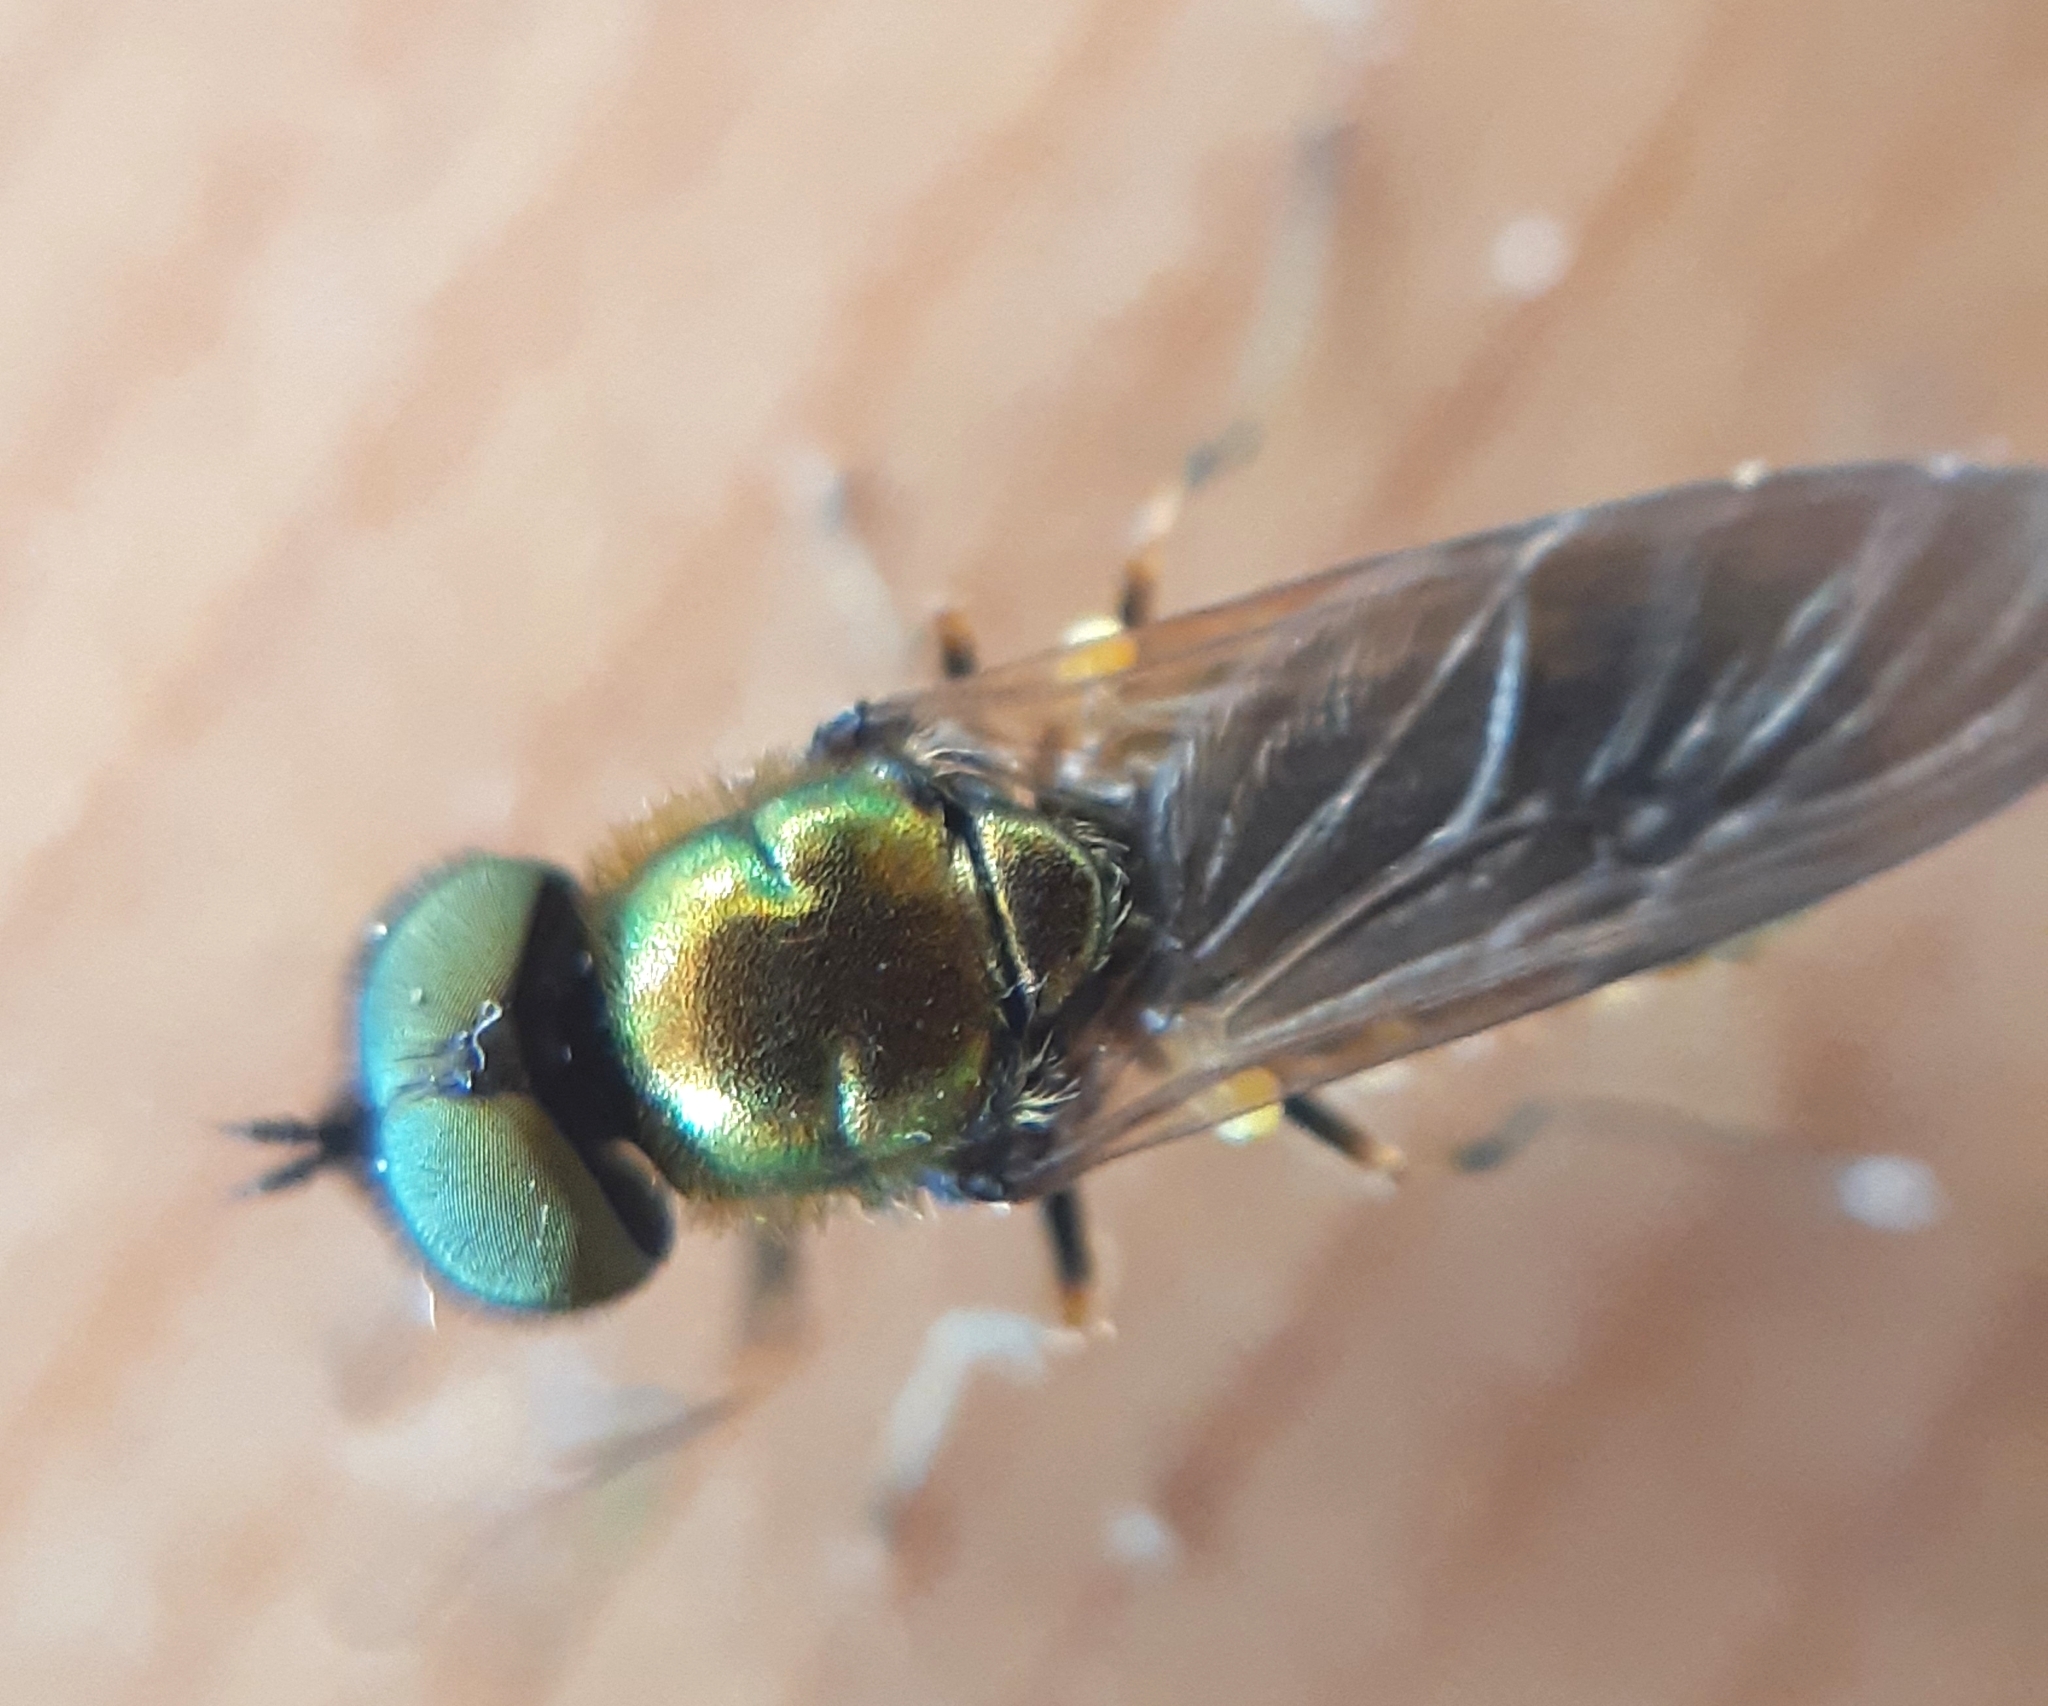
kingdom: Animalia
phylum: Arthropoda
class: Insecta
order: Diptera
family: Stratiomyidae
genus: Chloromyia
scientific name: Chloromyia formosa
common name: Soldier fly
